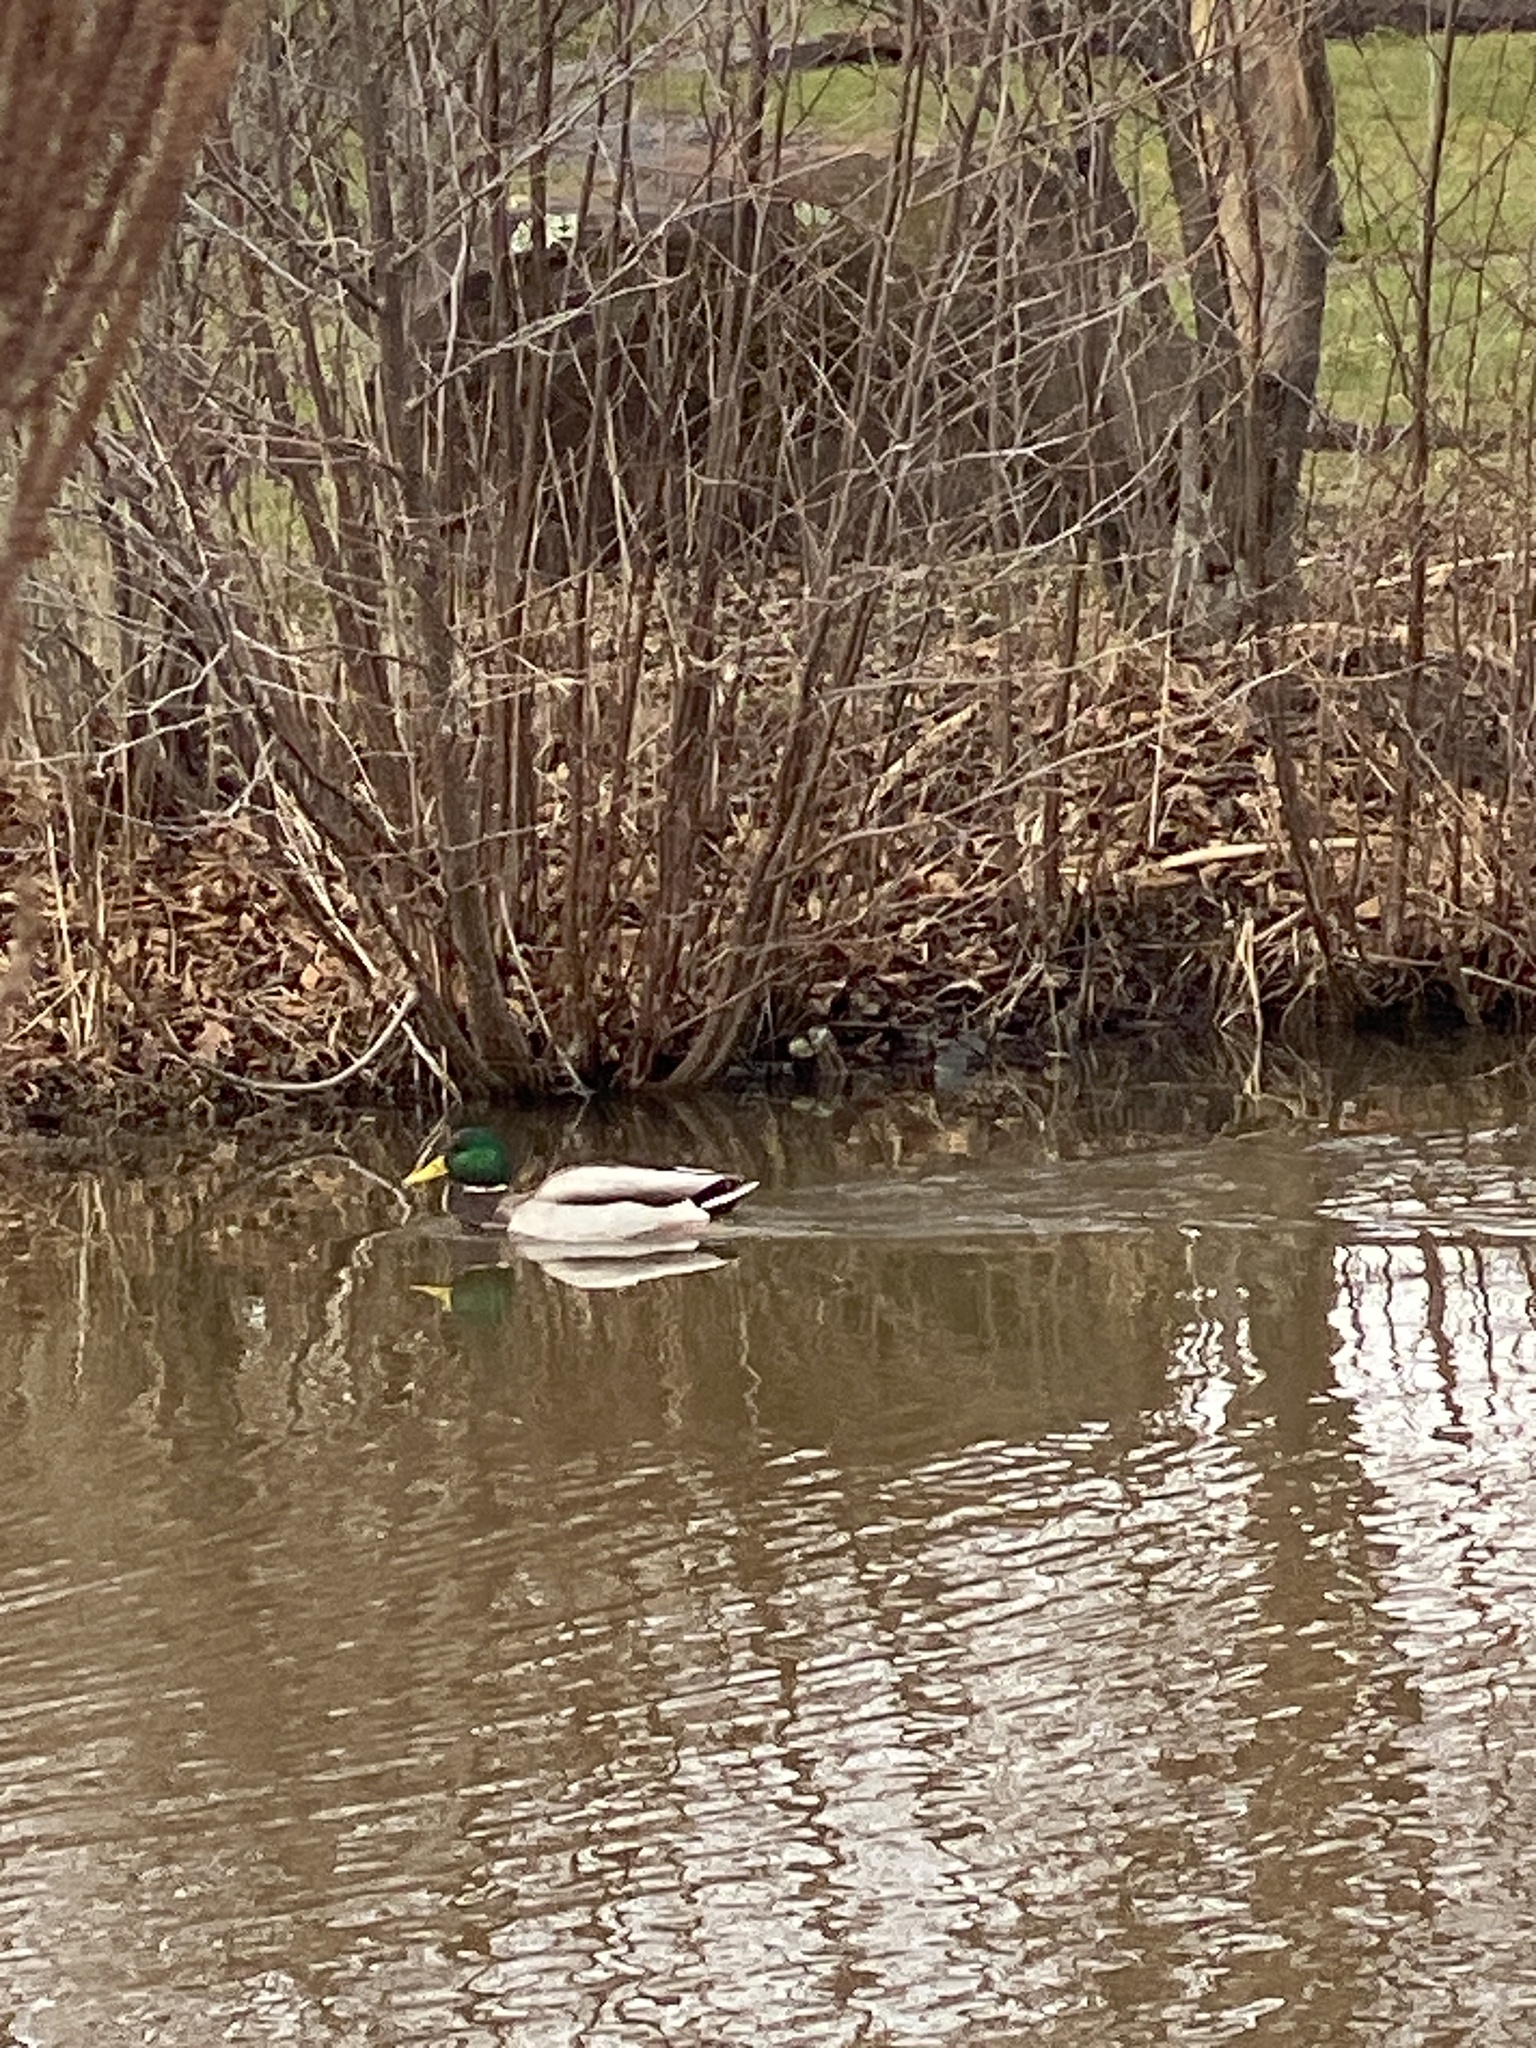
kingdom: Animalia
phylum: Chordata
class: Aves
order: Anseriformes
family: Anatidae
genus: Anas
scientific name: Anas platyrhynchos
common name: Mallard
